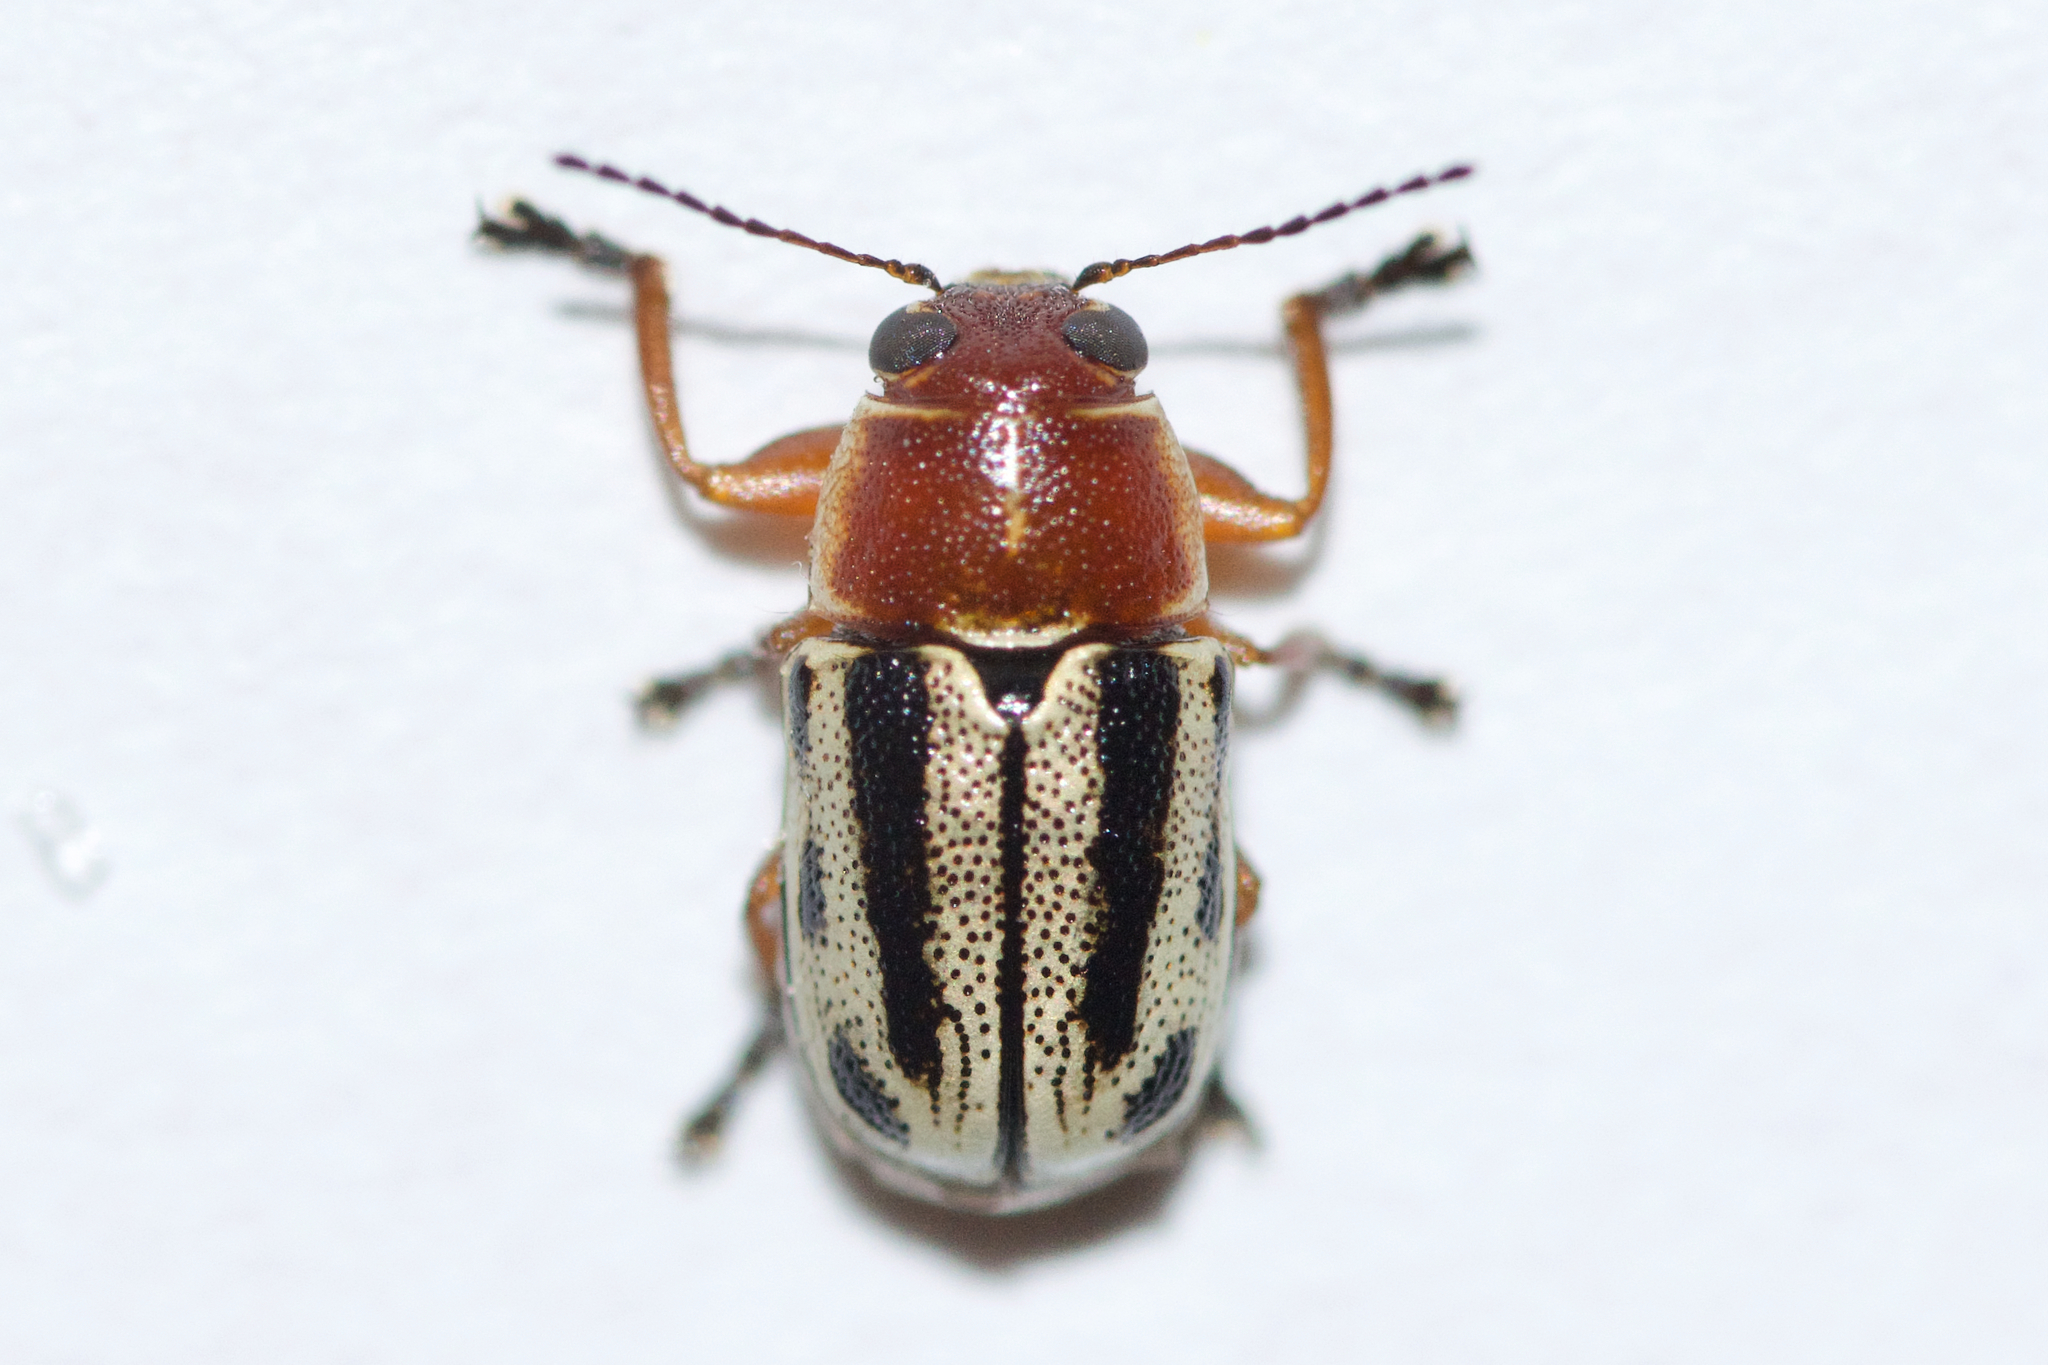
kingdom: Animalia
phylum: Arthropoda
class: Insecta
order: Coleoptera
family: Chrysomelidae
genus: Pachybrachis
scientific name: Pachybrachis bivittatus
